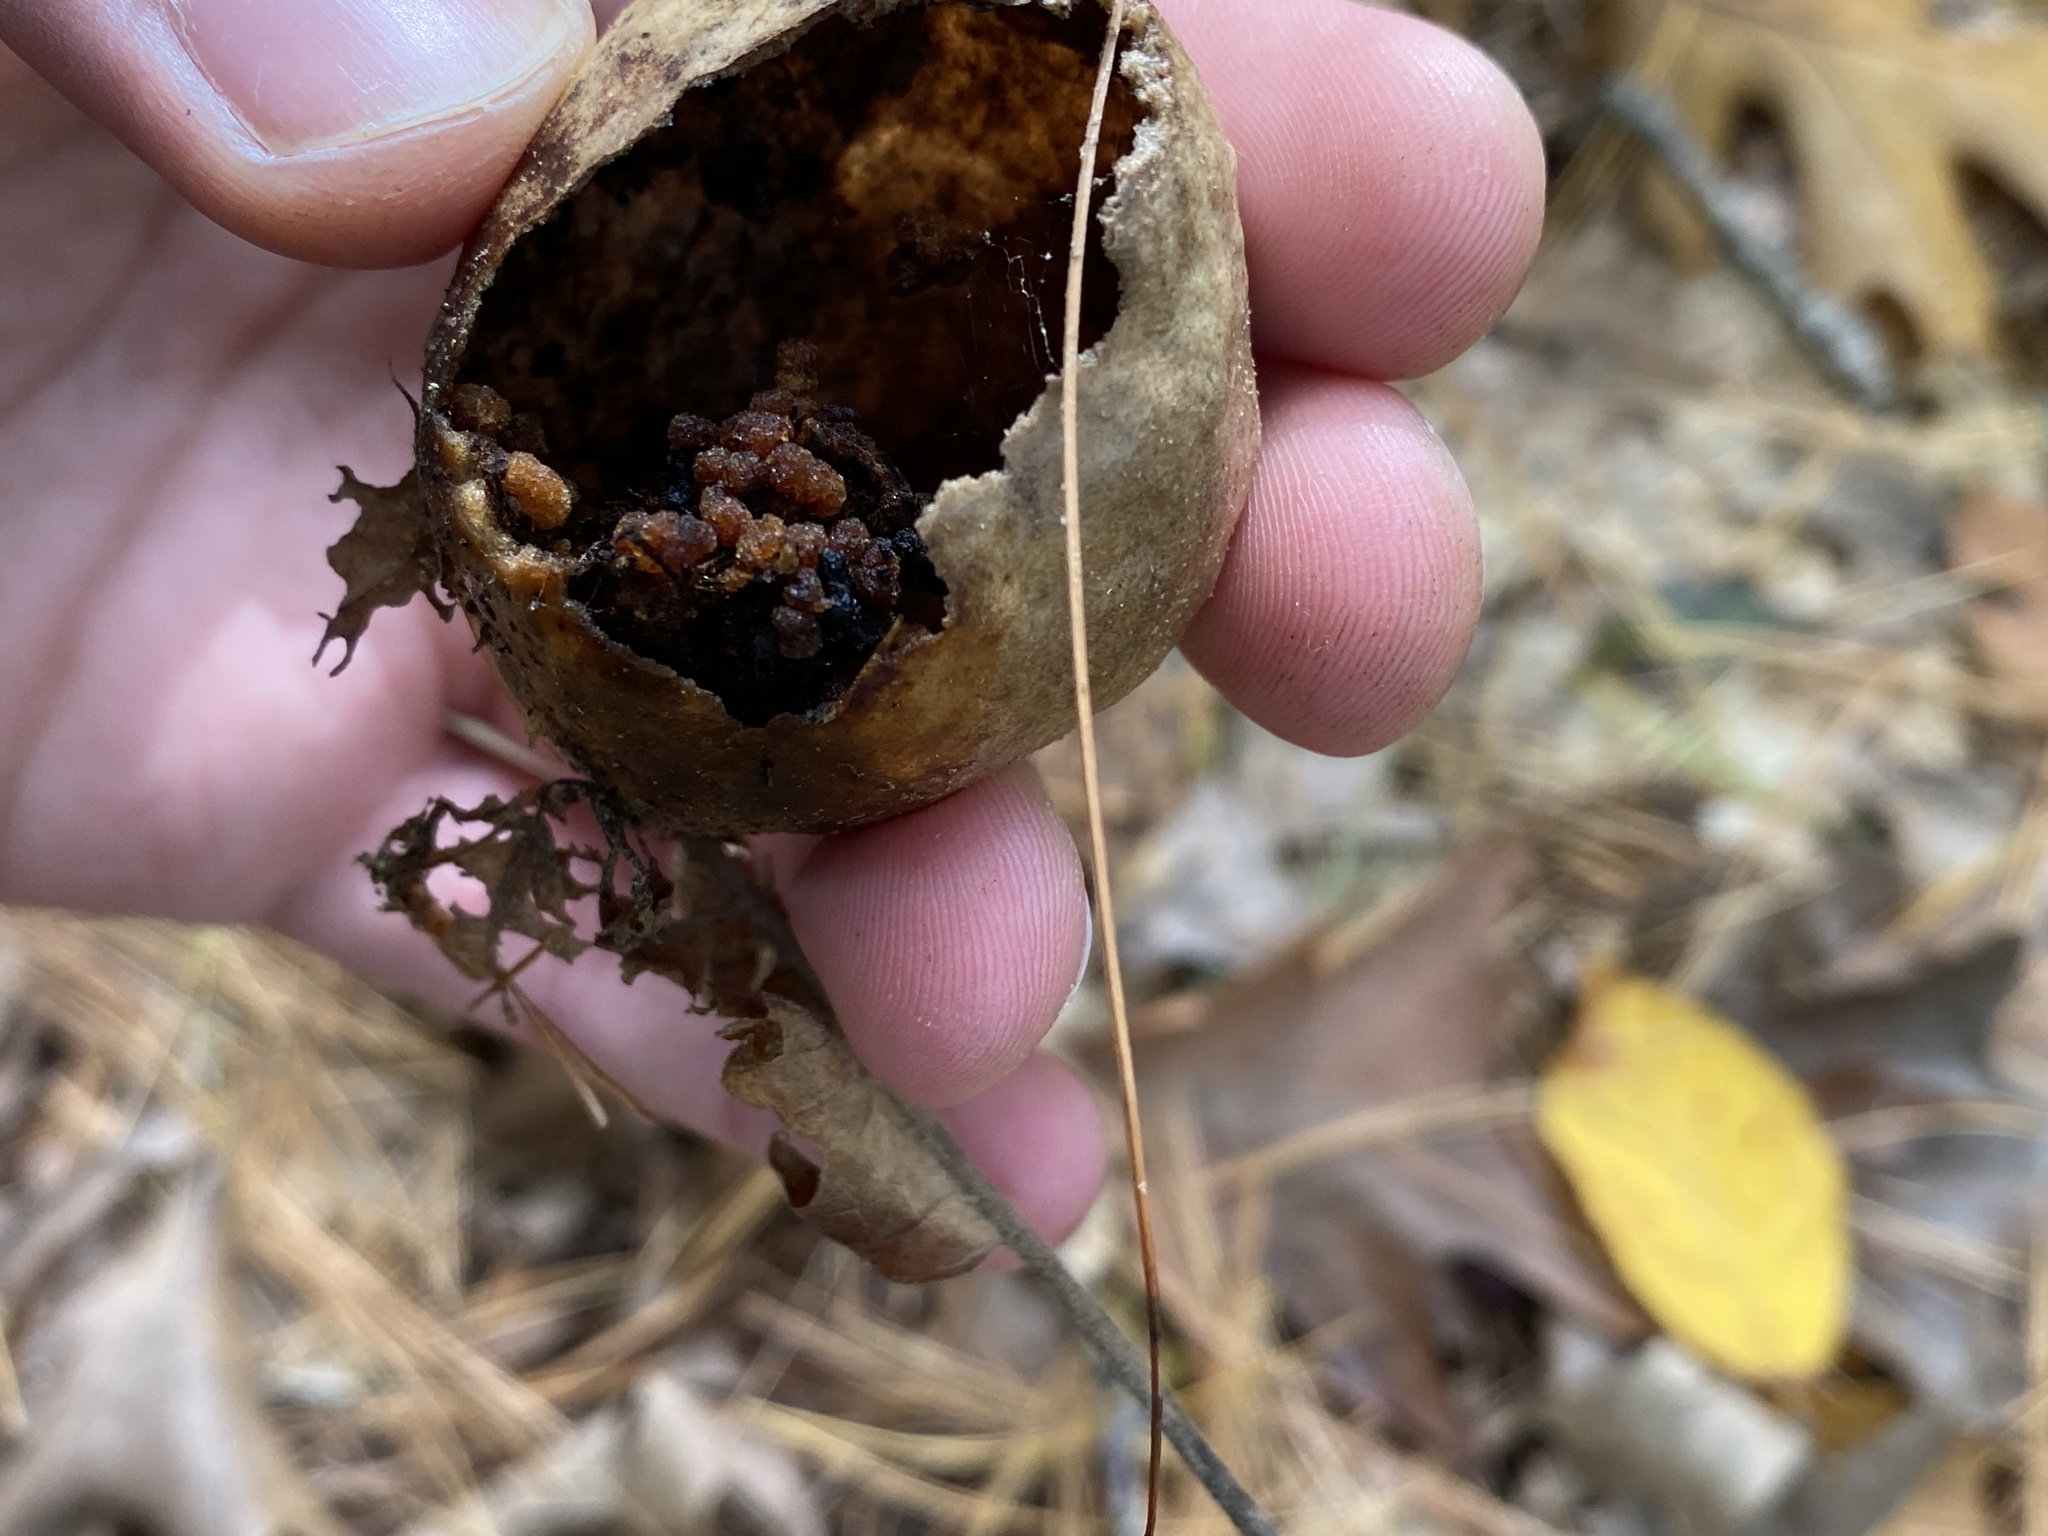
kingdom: Animalia
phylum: Arthropoda
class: Insecta
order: Hymenoptera
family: Cynipidae
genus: Amphibolips
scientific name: Amphibolips
